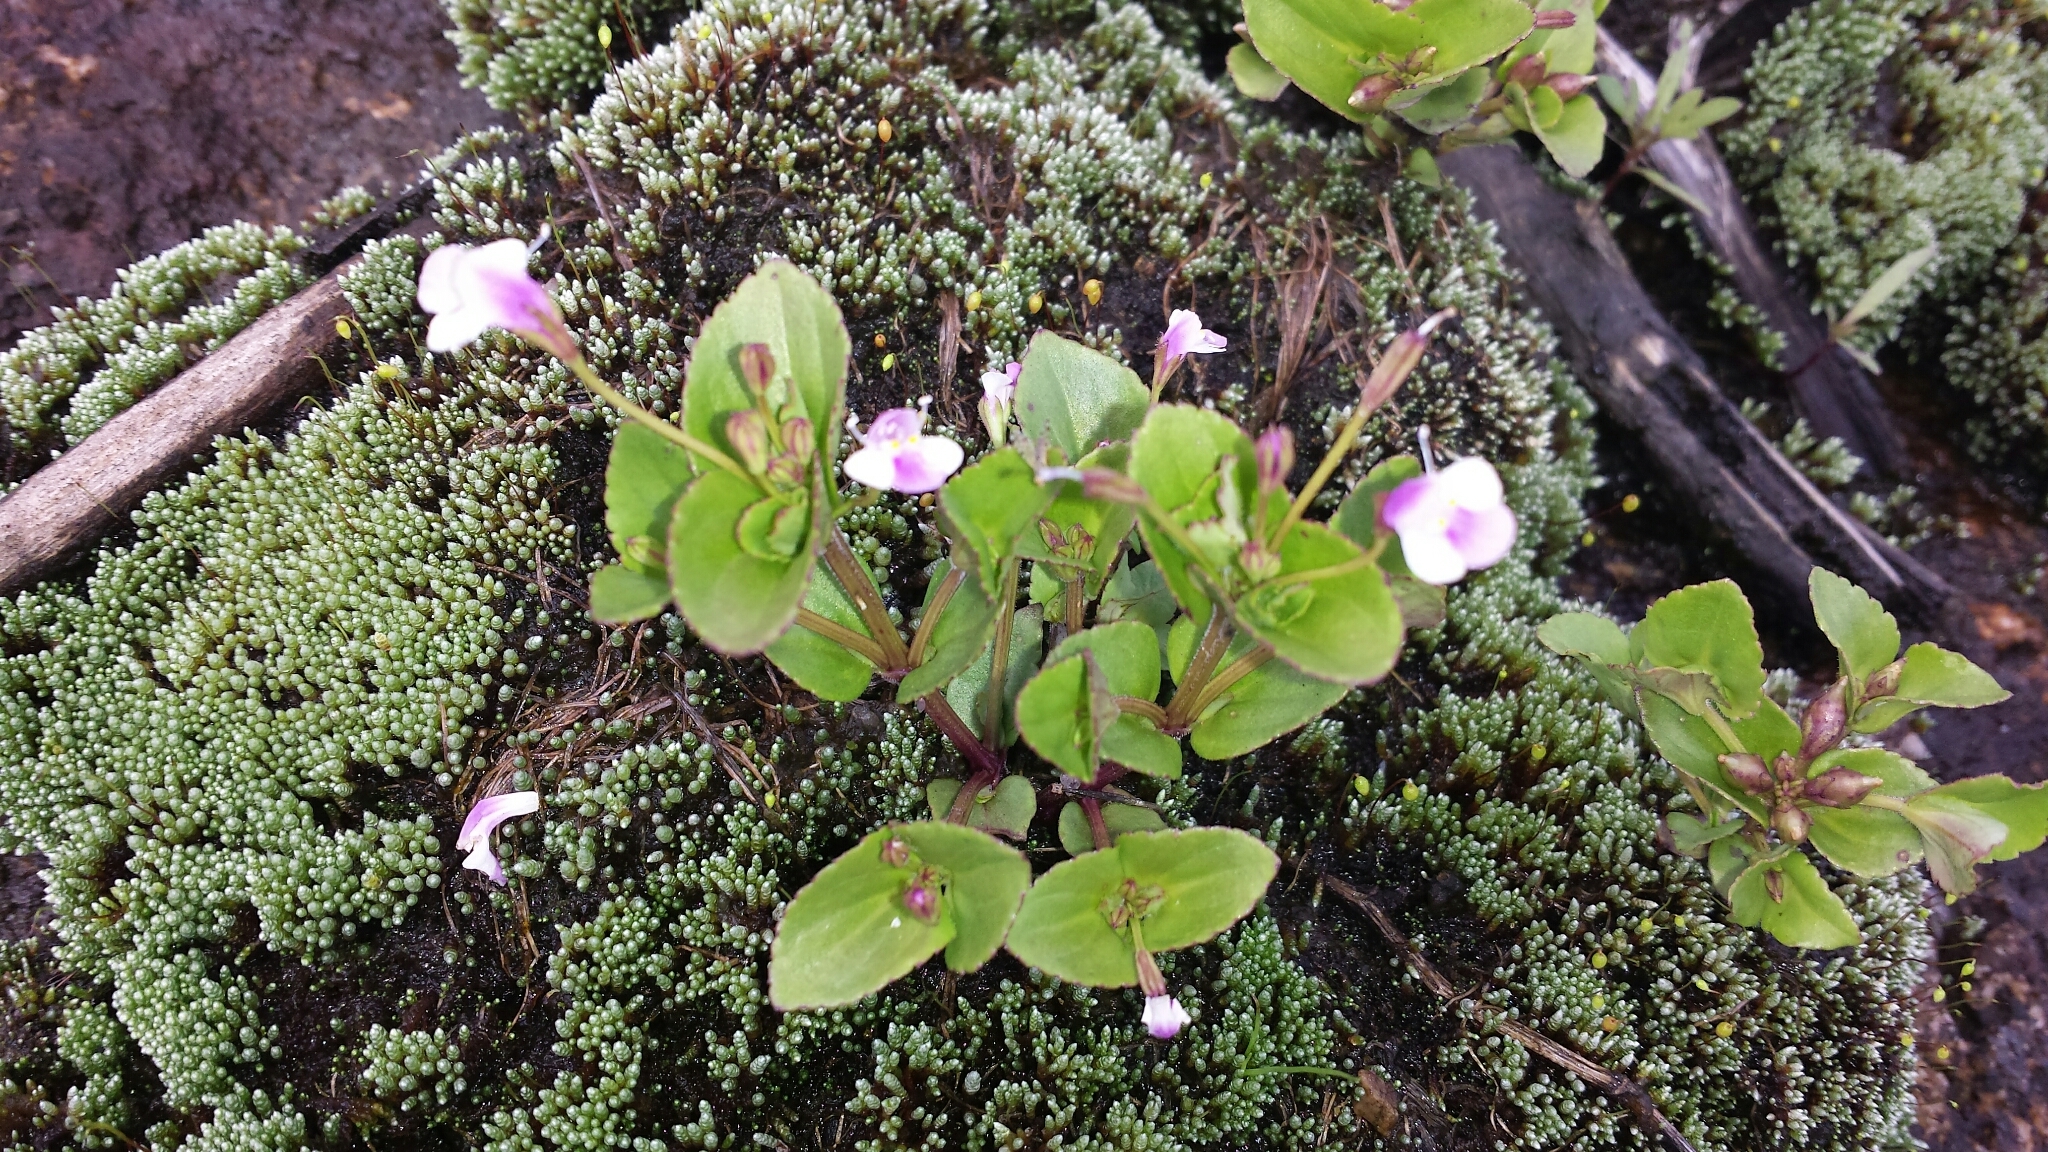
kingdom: Plantae
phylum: Tracheophyta
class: Magnoliopsida
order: Lamiales
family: Linderniaceae
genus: Craterostigma
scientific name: Craterostigma nummulariifolium
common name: False pimpernel
